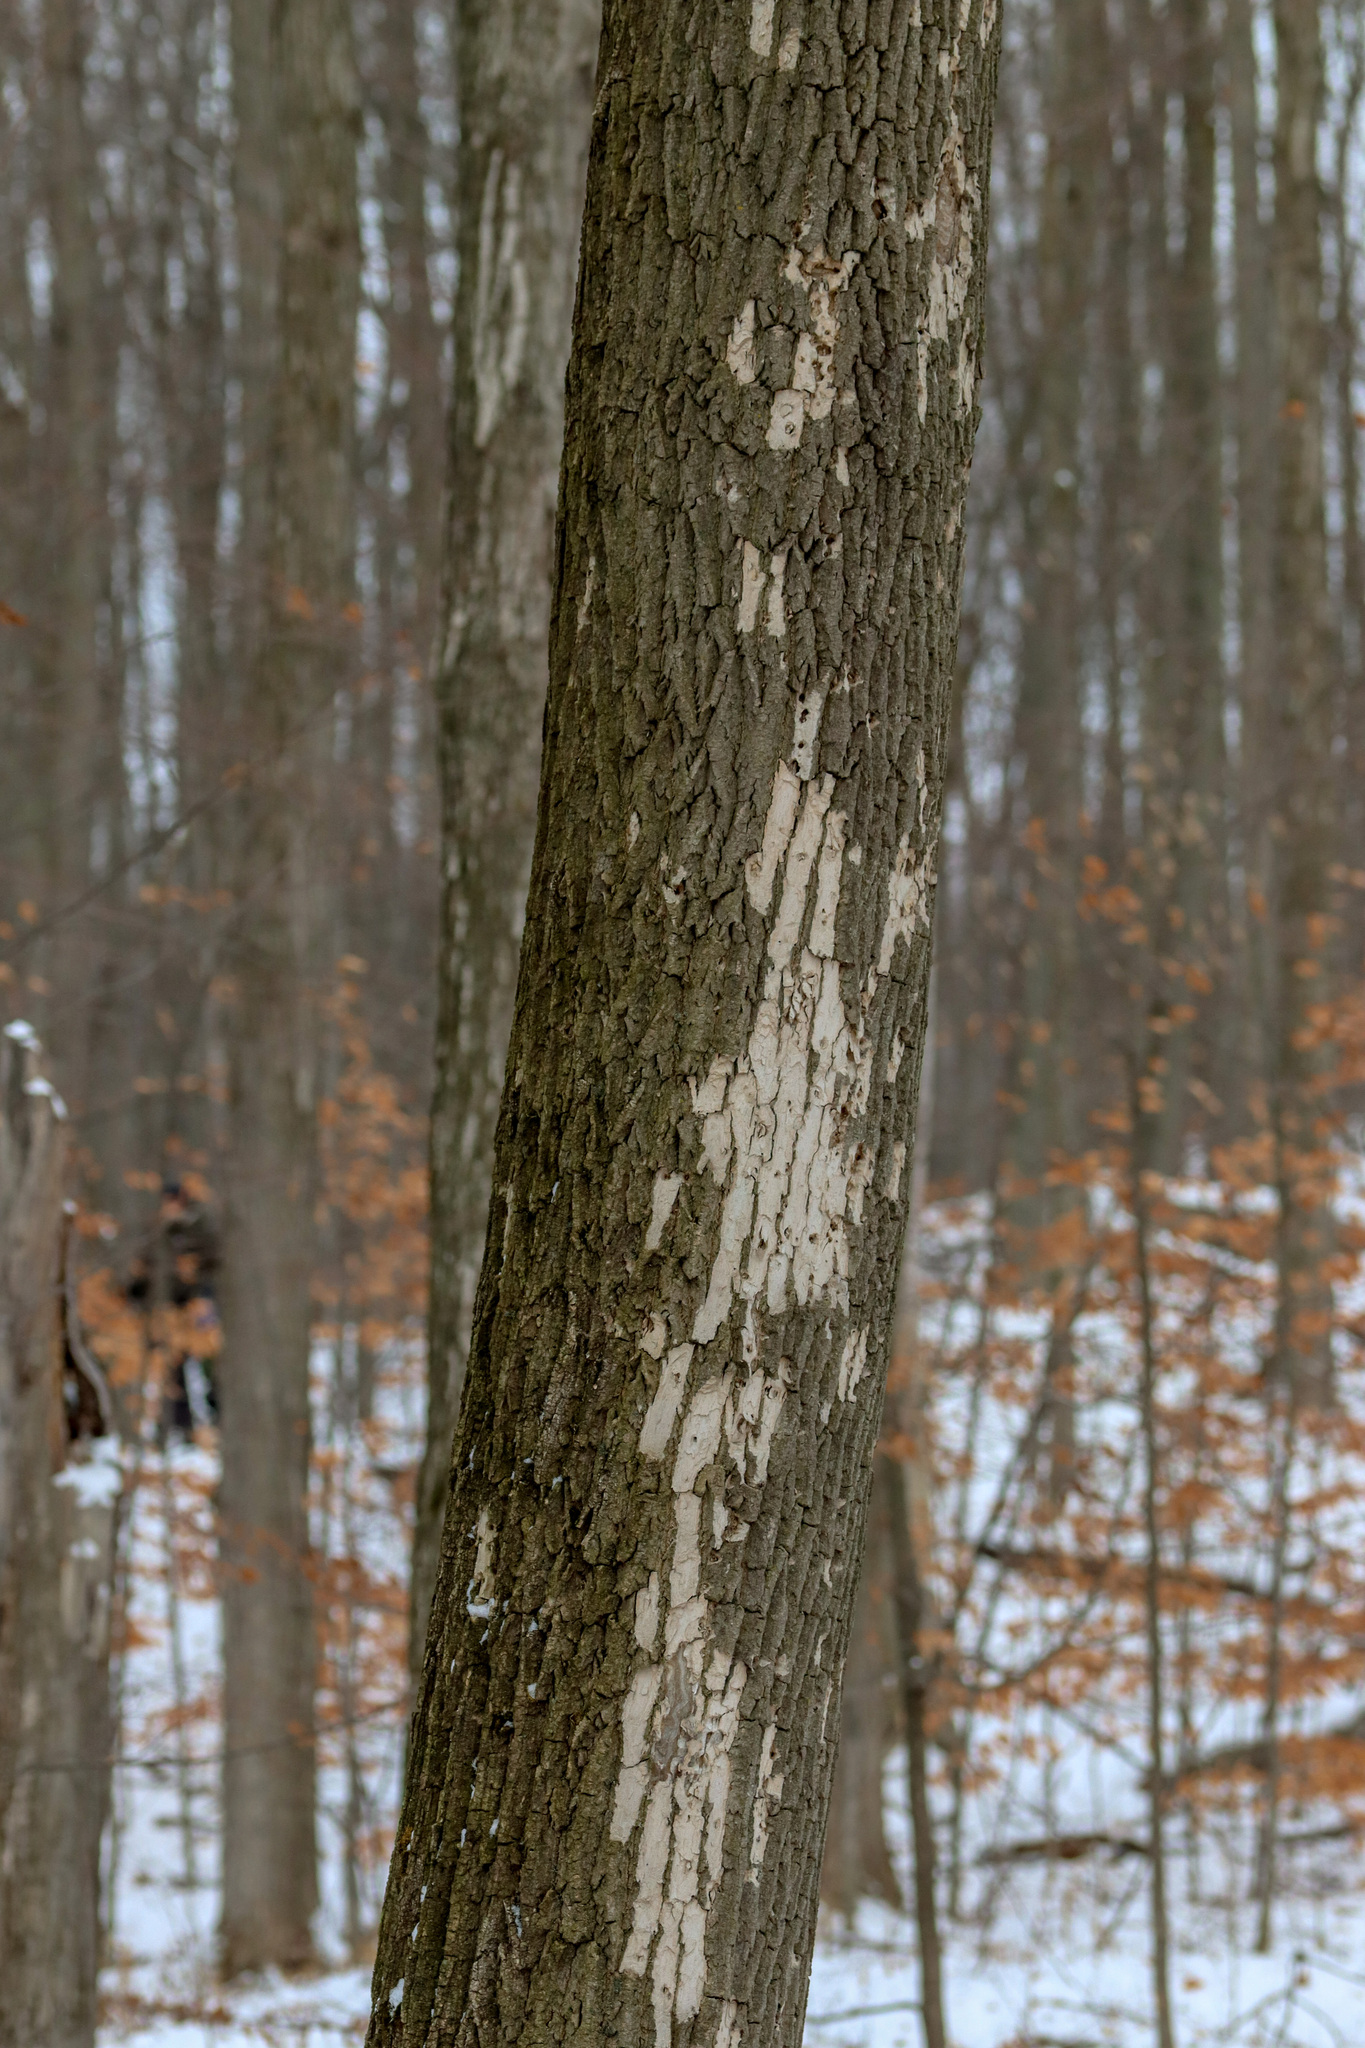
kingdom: Animalia
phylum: Arthropoda
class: Insecta
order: Coleoptera
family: Buprestidae
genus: Agrilus
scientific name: Agrilus planipennis
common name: Emerald ash borer
